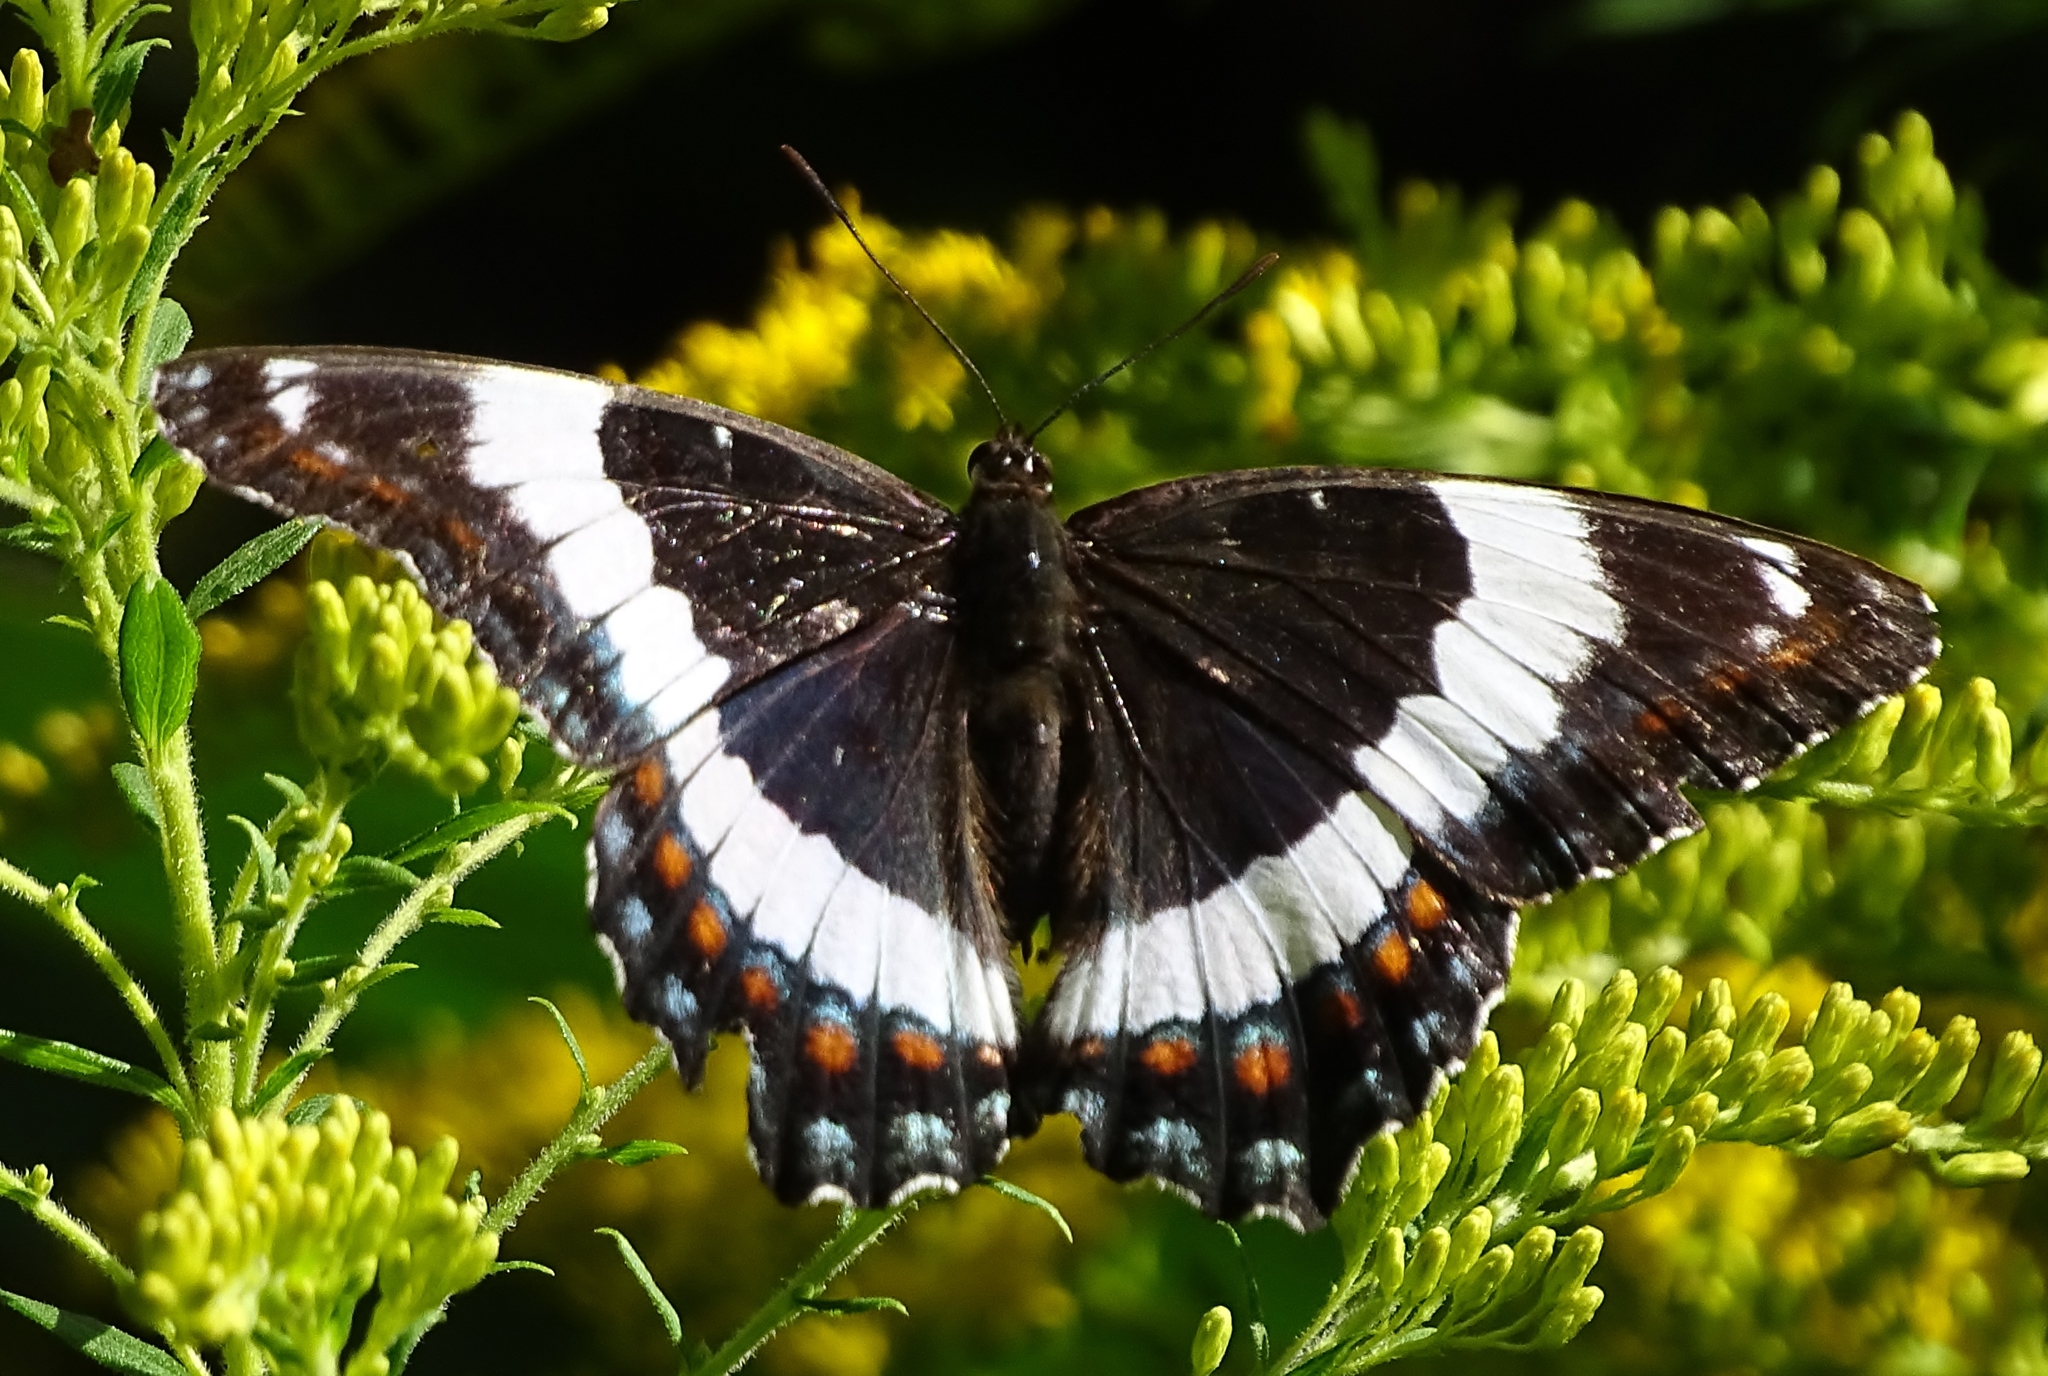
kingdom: Animalia
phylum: Arthropoda
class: Insecta
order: Lepidoptera
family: Nymphalidae
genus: Limenitis
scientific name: Limenitis arthemis
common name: Red-spotted admiral
